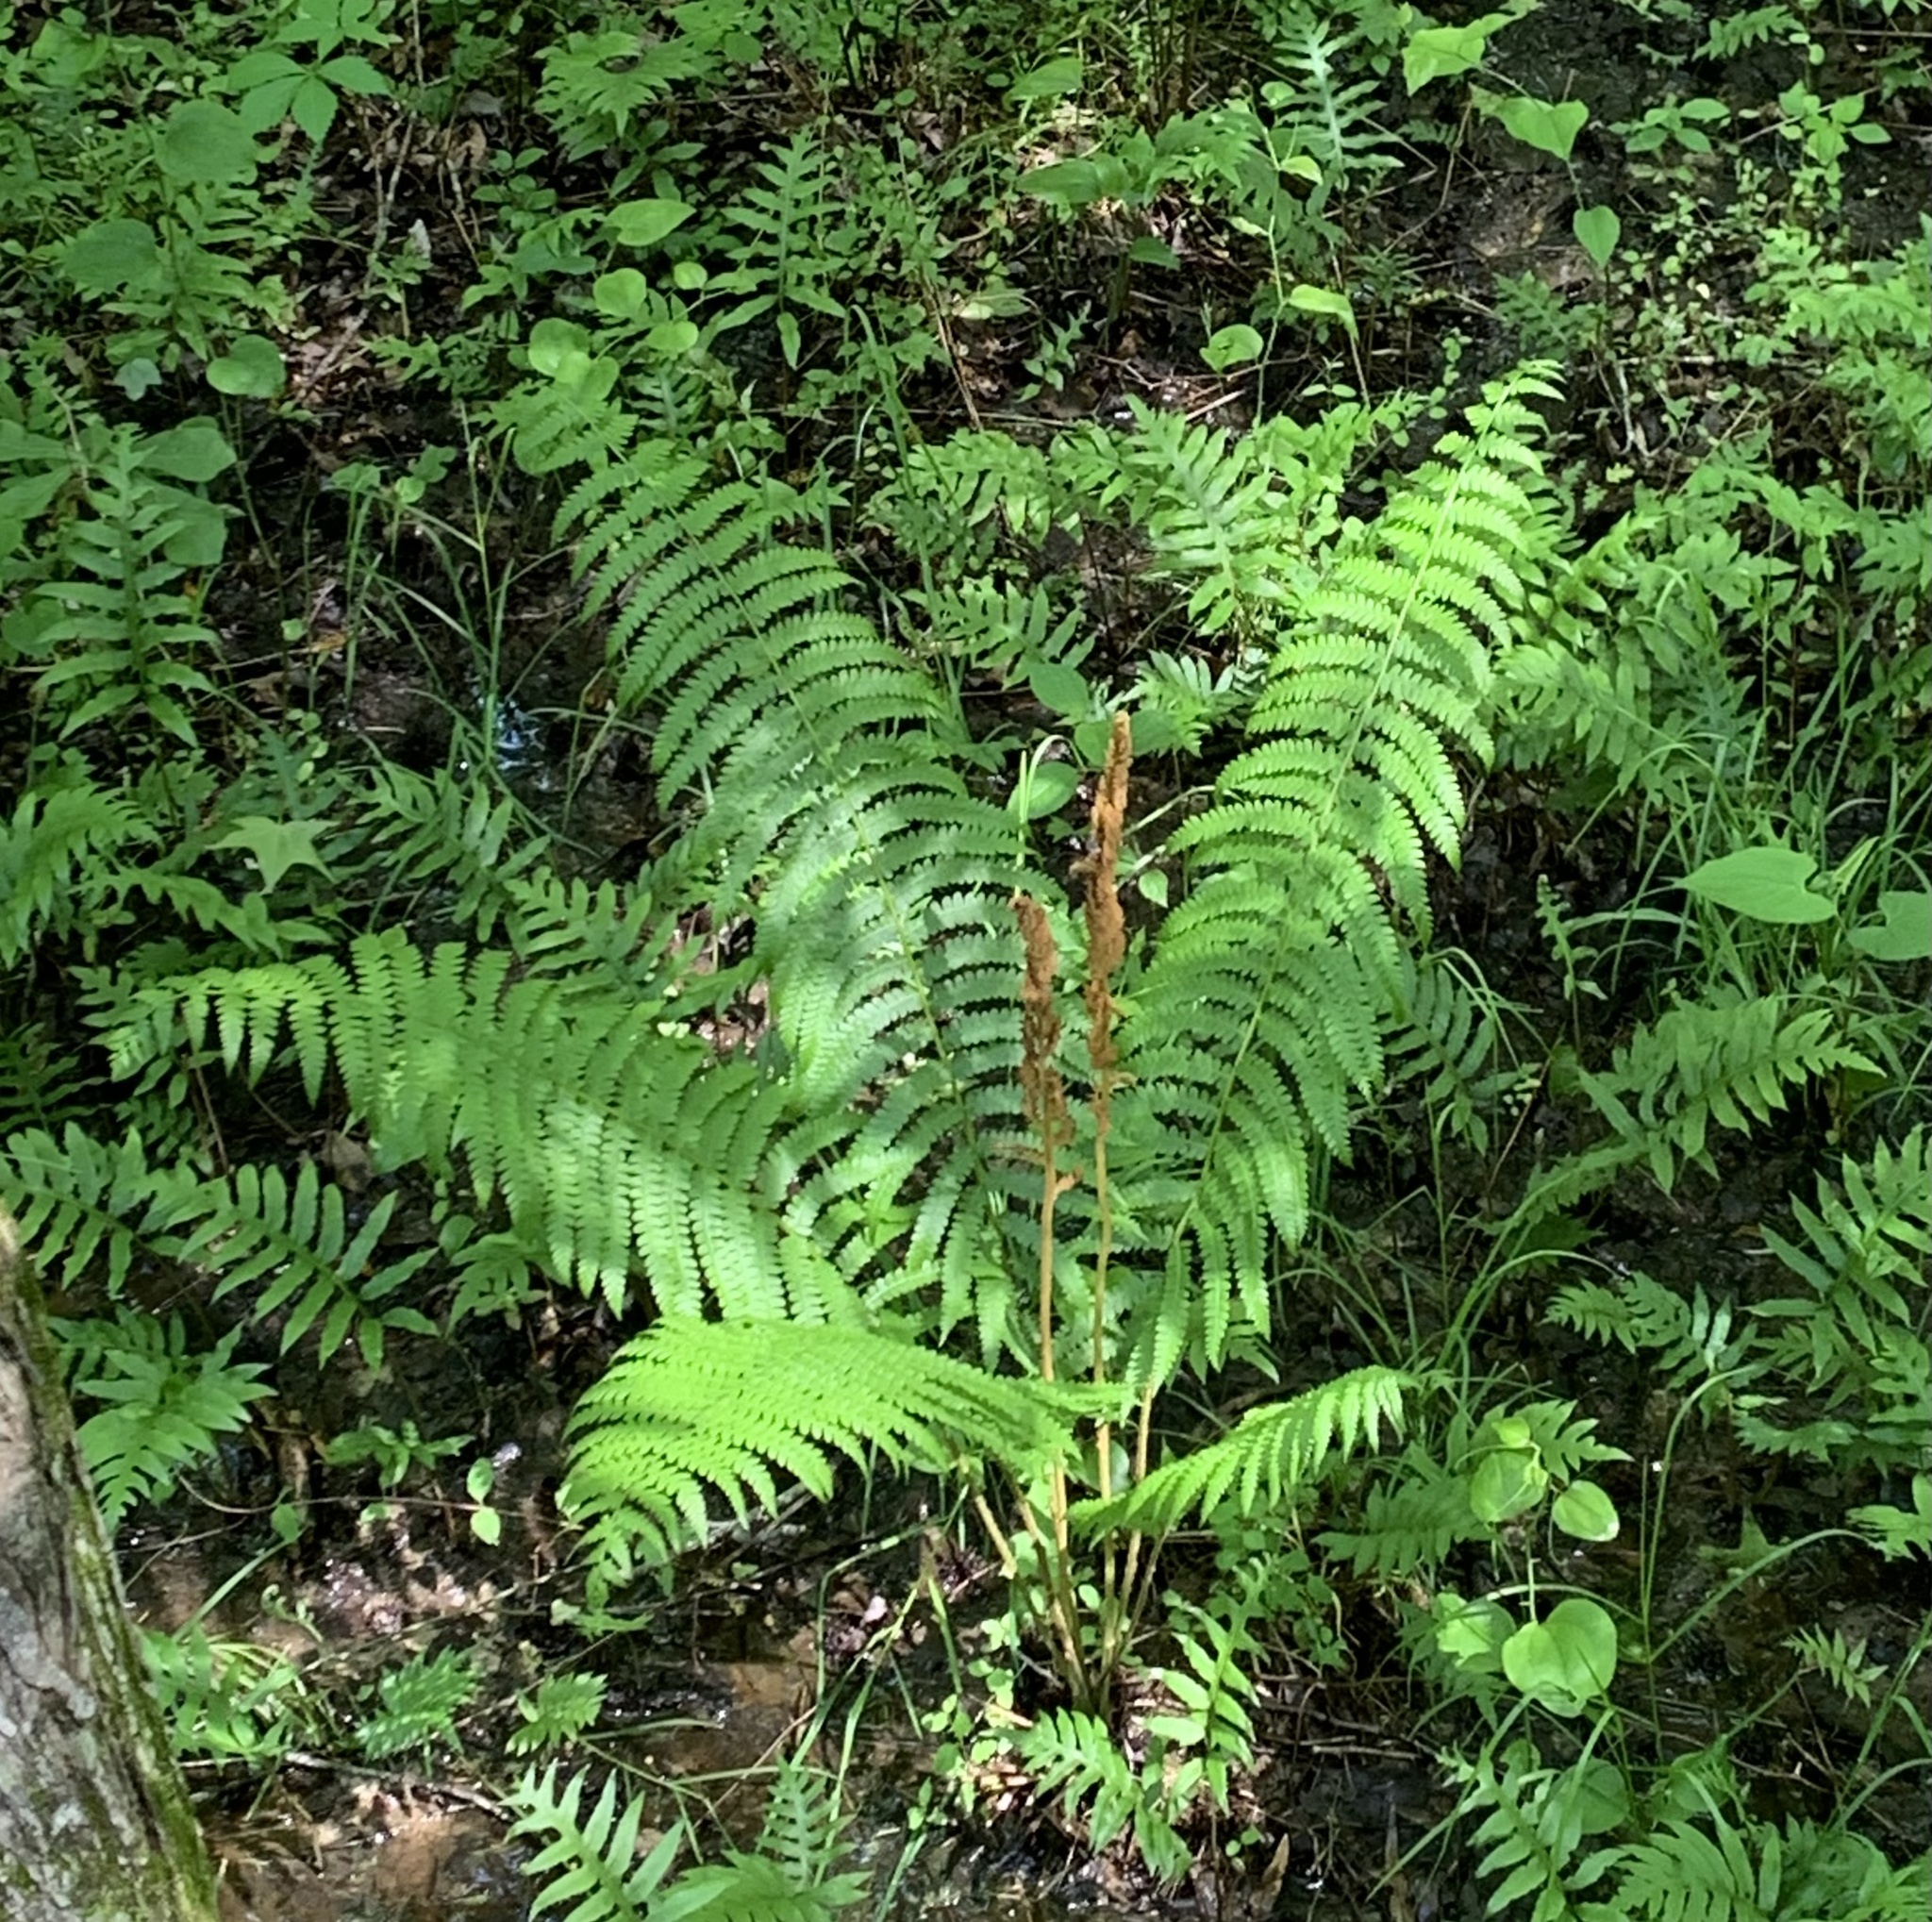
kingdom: Plantae
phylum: Tracheophyta
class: Polypodiopsida
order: Osmundales
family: Osmundaceae
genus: Osmundastrum
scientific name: Osmundastrum cinnamomeum
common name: Cinnamon fern
